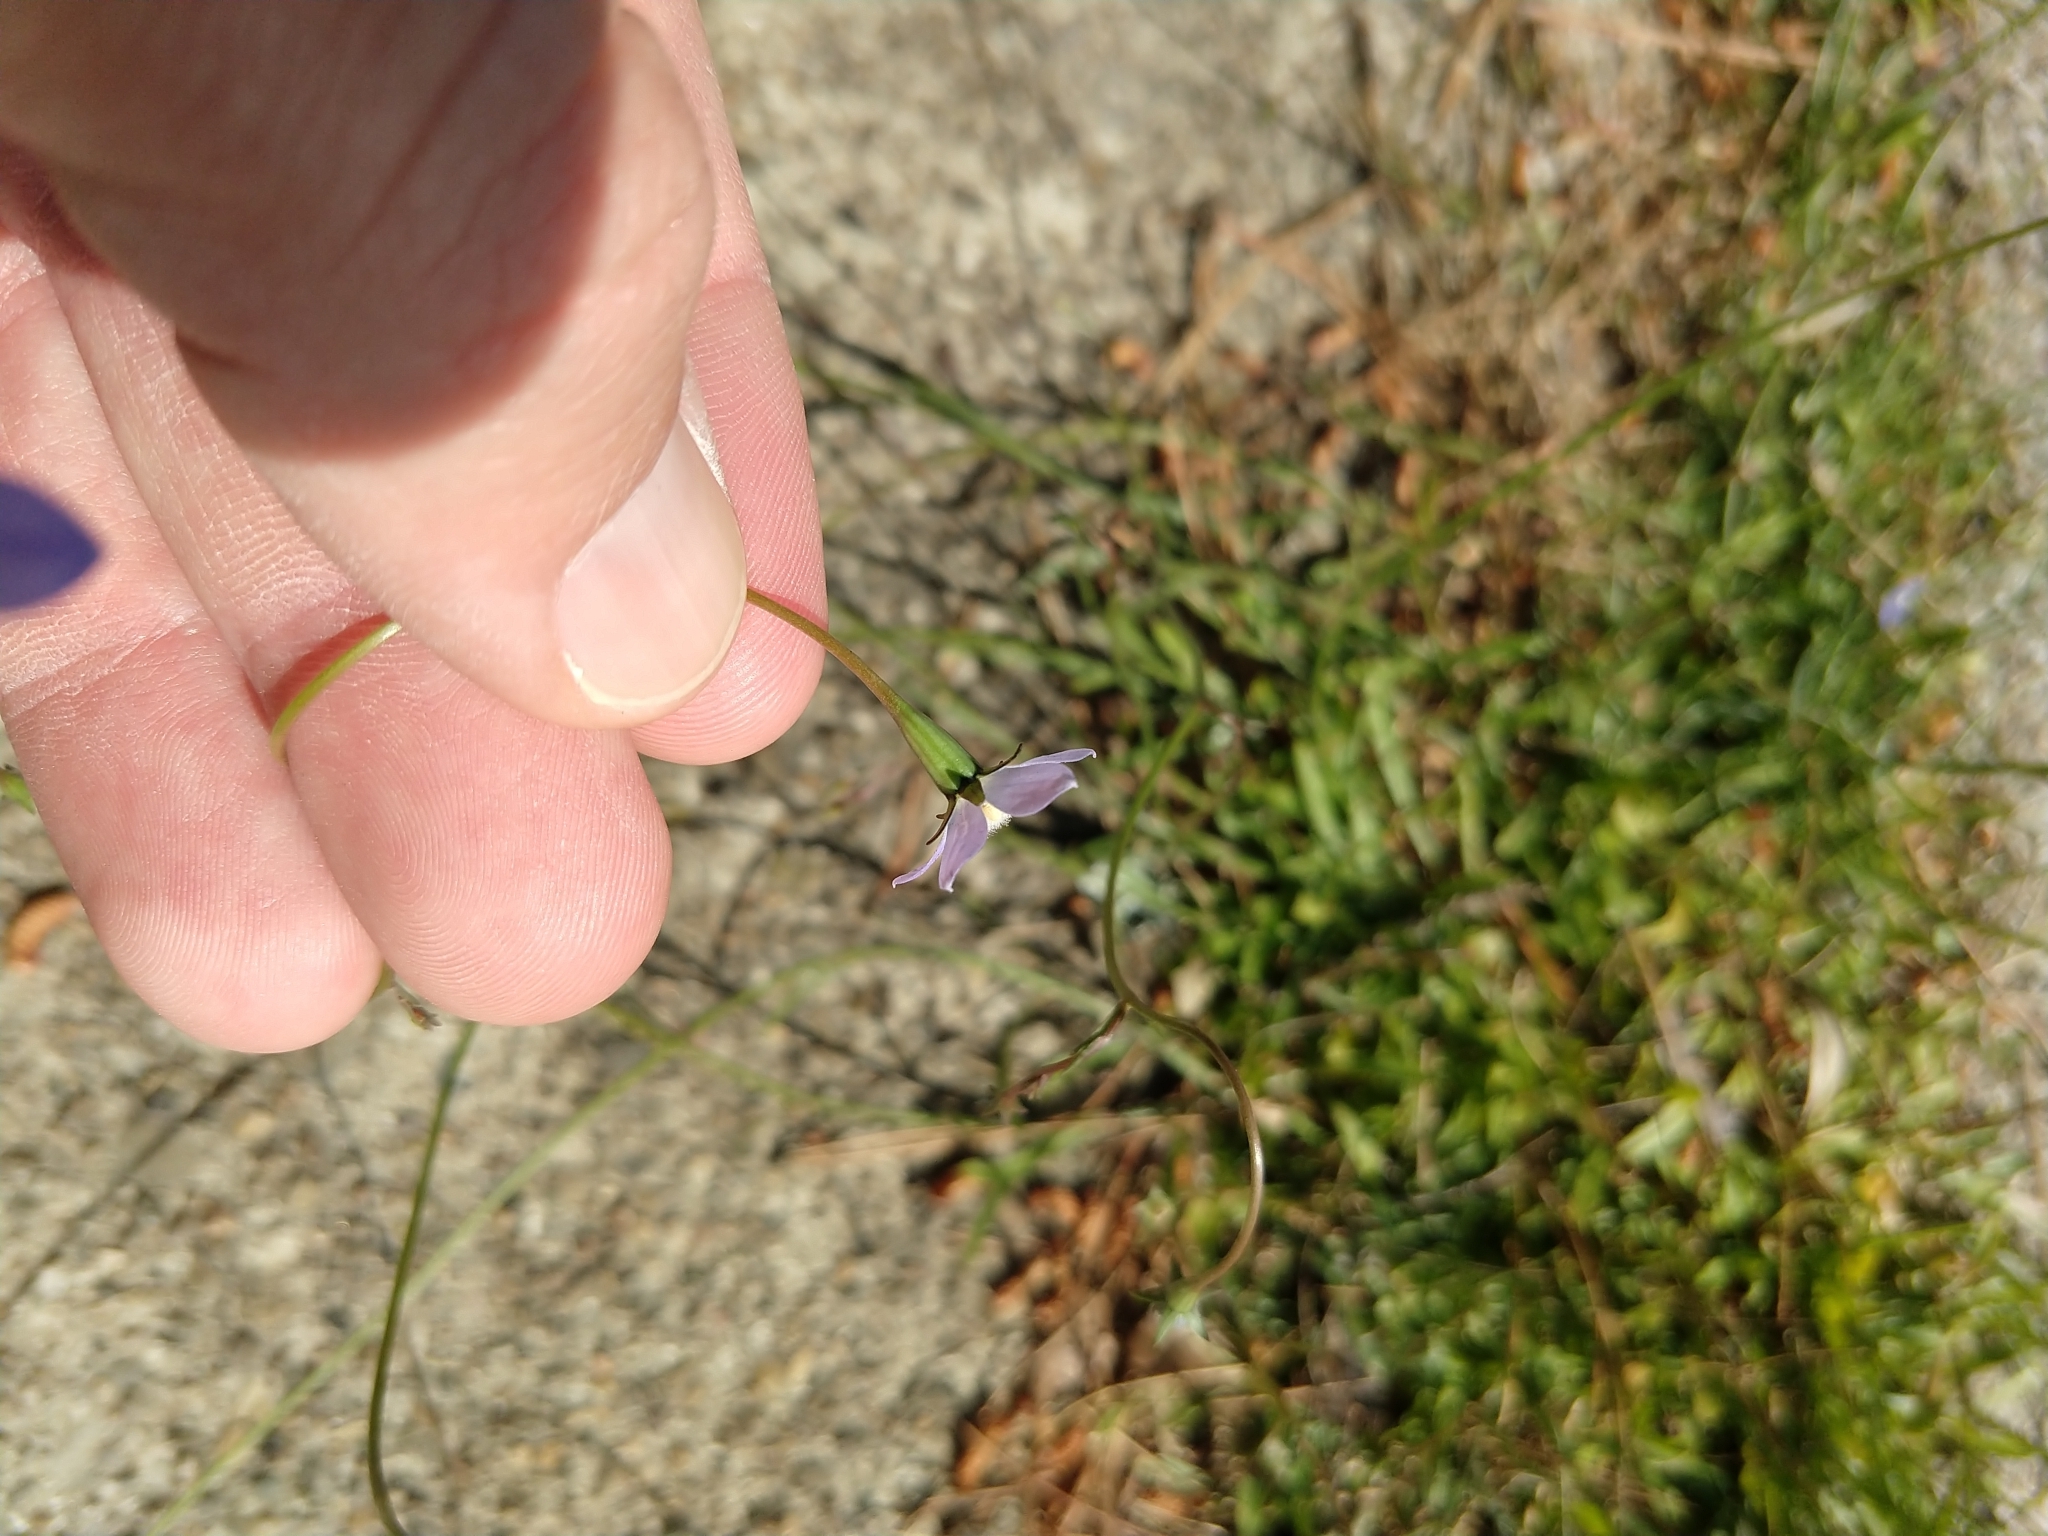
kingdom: Plantae
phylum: Tracheophyta
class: Magnoliopsida
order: Asterales
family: Campanulaceae
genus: Wahlenbergia
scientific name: Wahlenbergia marginata
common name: Southern rockbell
